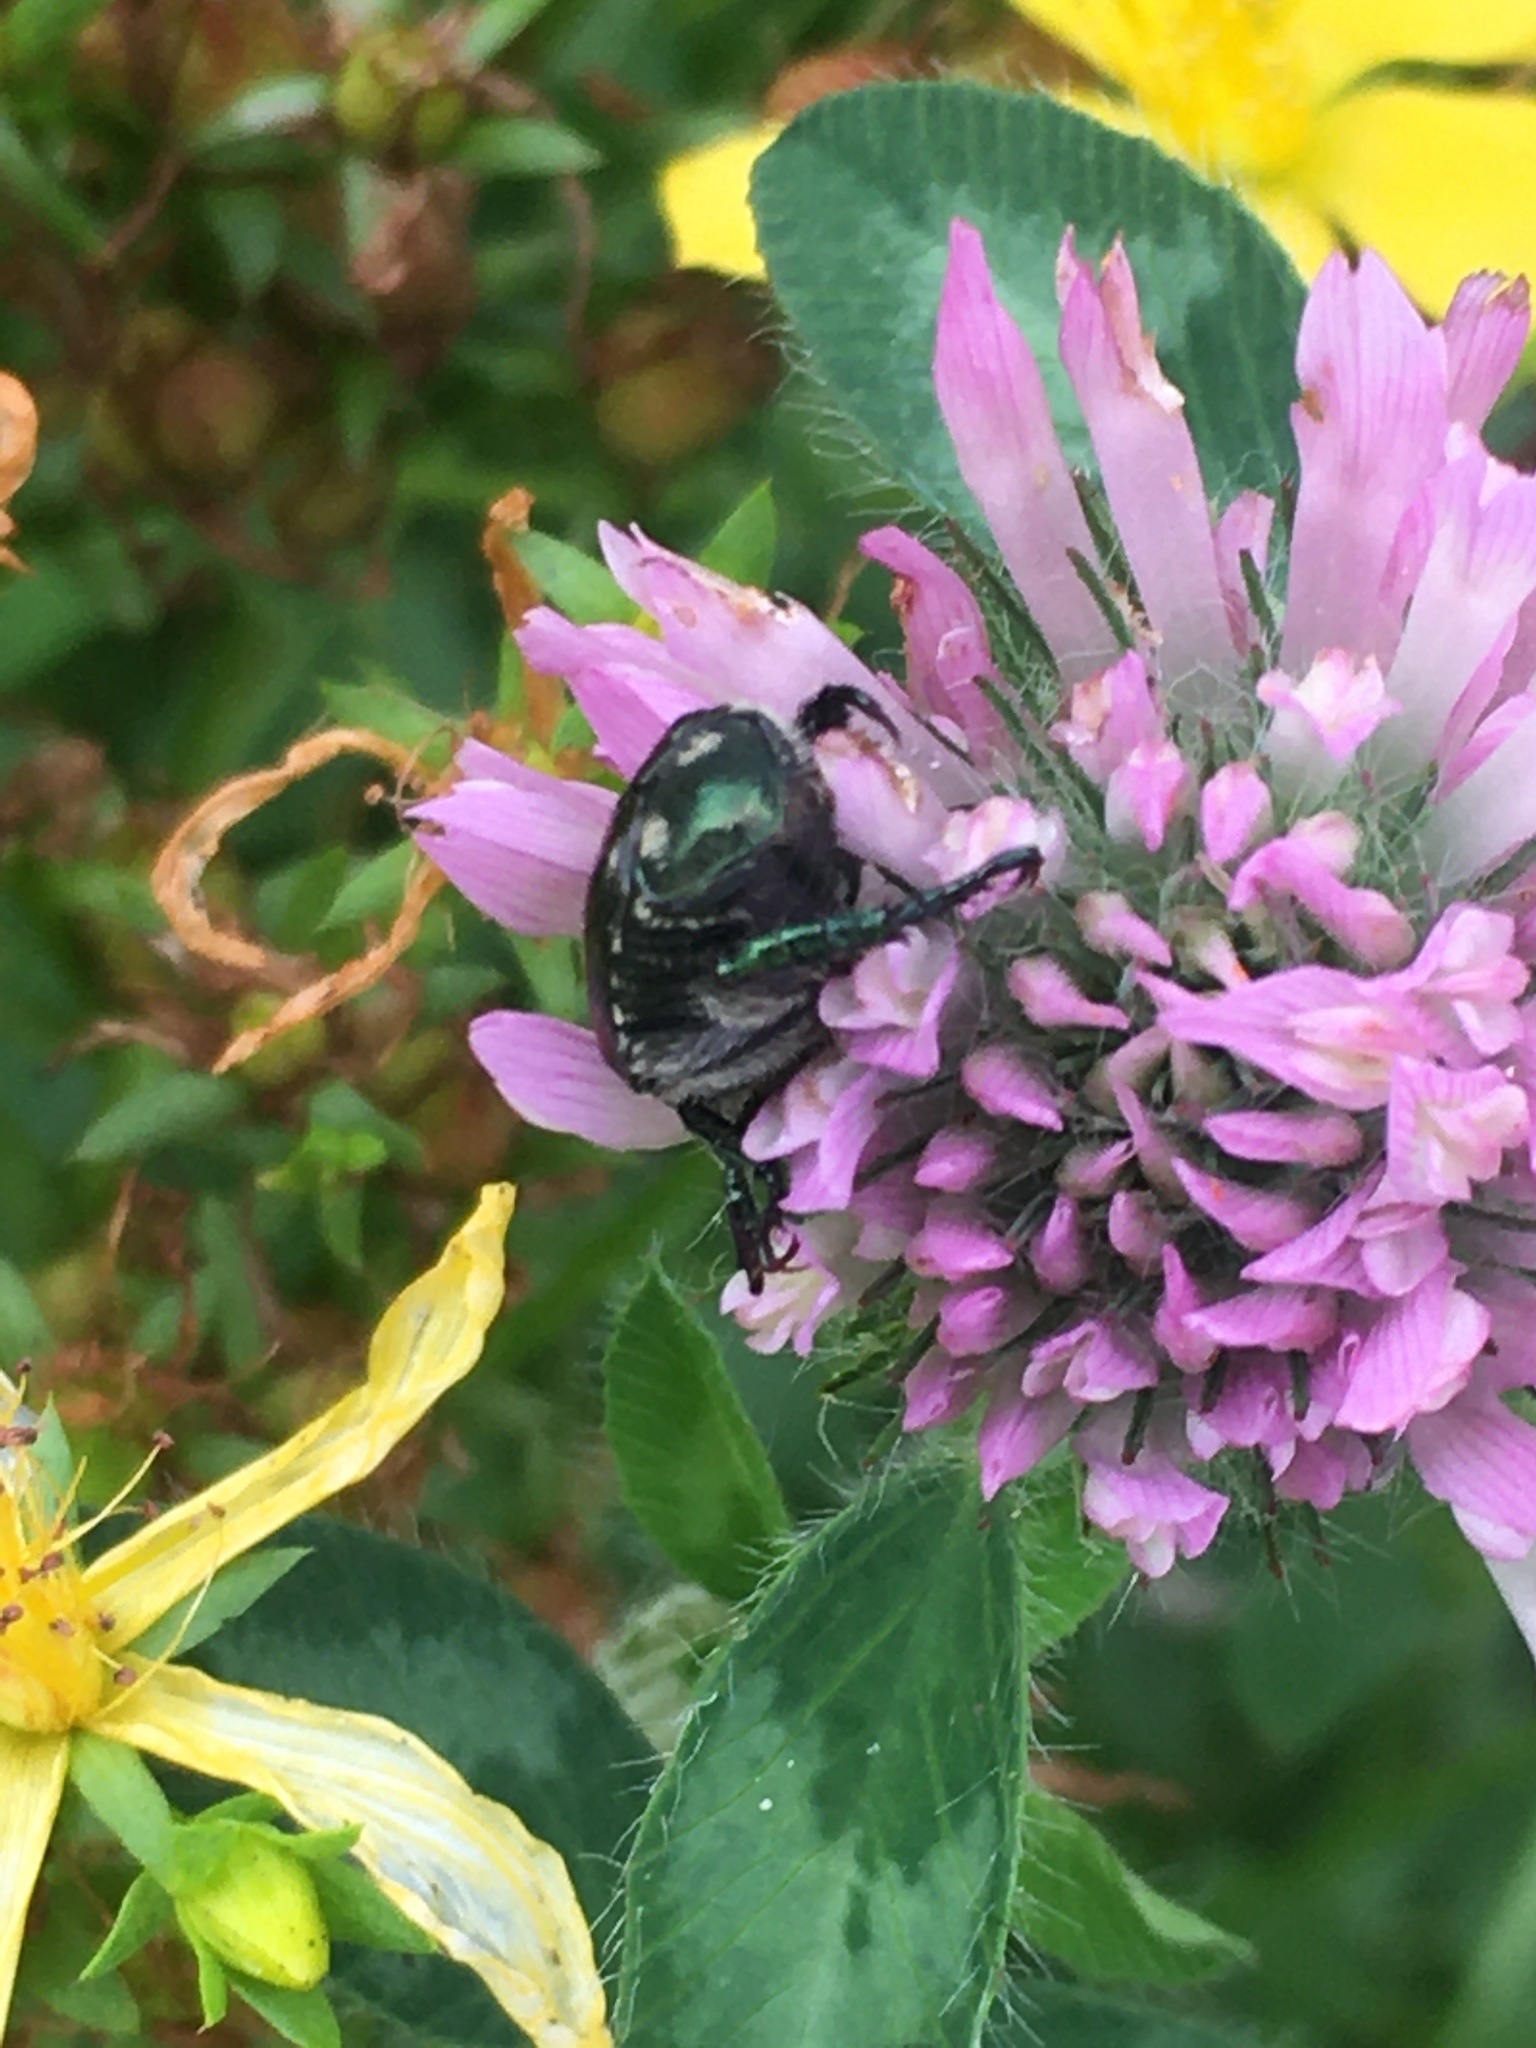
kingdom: Animalia
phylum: Arthropoda
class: Insecta
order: Coleoptera
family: Scarabaeidae
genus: Popillia
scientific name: Popillia japonica
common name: Japanese beetle
